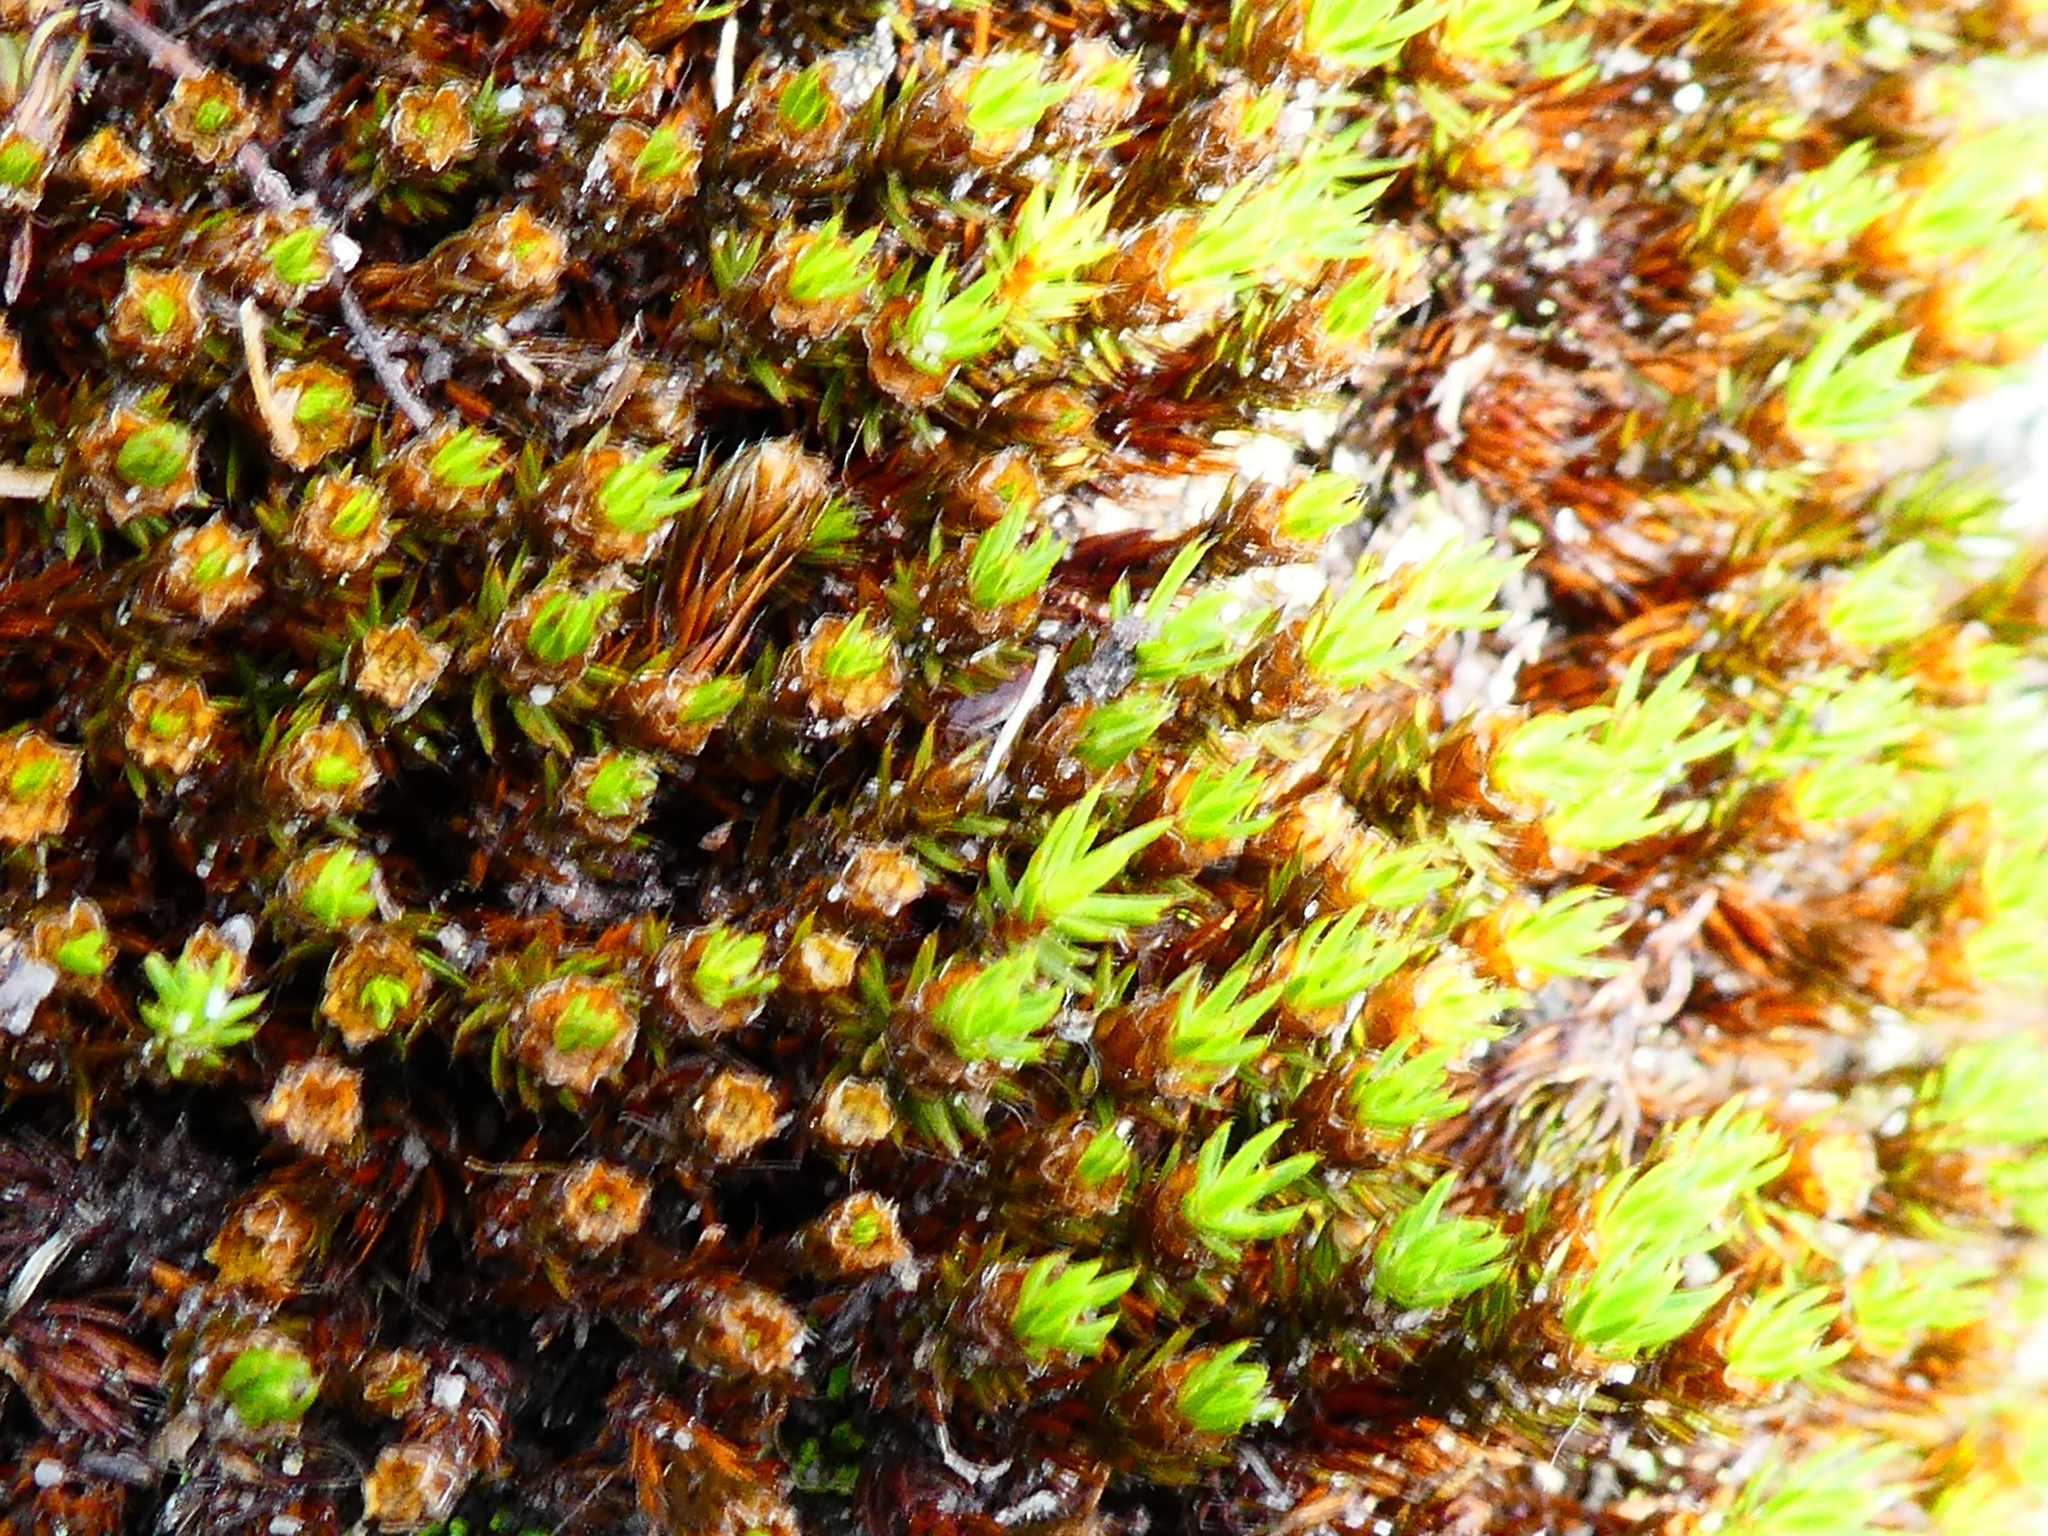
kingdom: Plantae
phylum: Bryophyta
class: Polytrichopsida
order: Polytrichales
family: Polytrichaceae
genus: Polytrichum
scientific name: Polytrichum piliferum
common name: Bristly haircap
